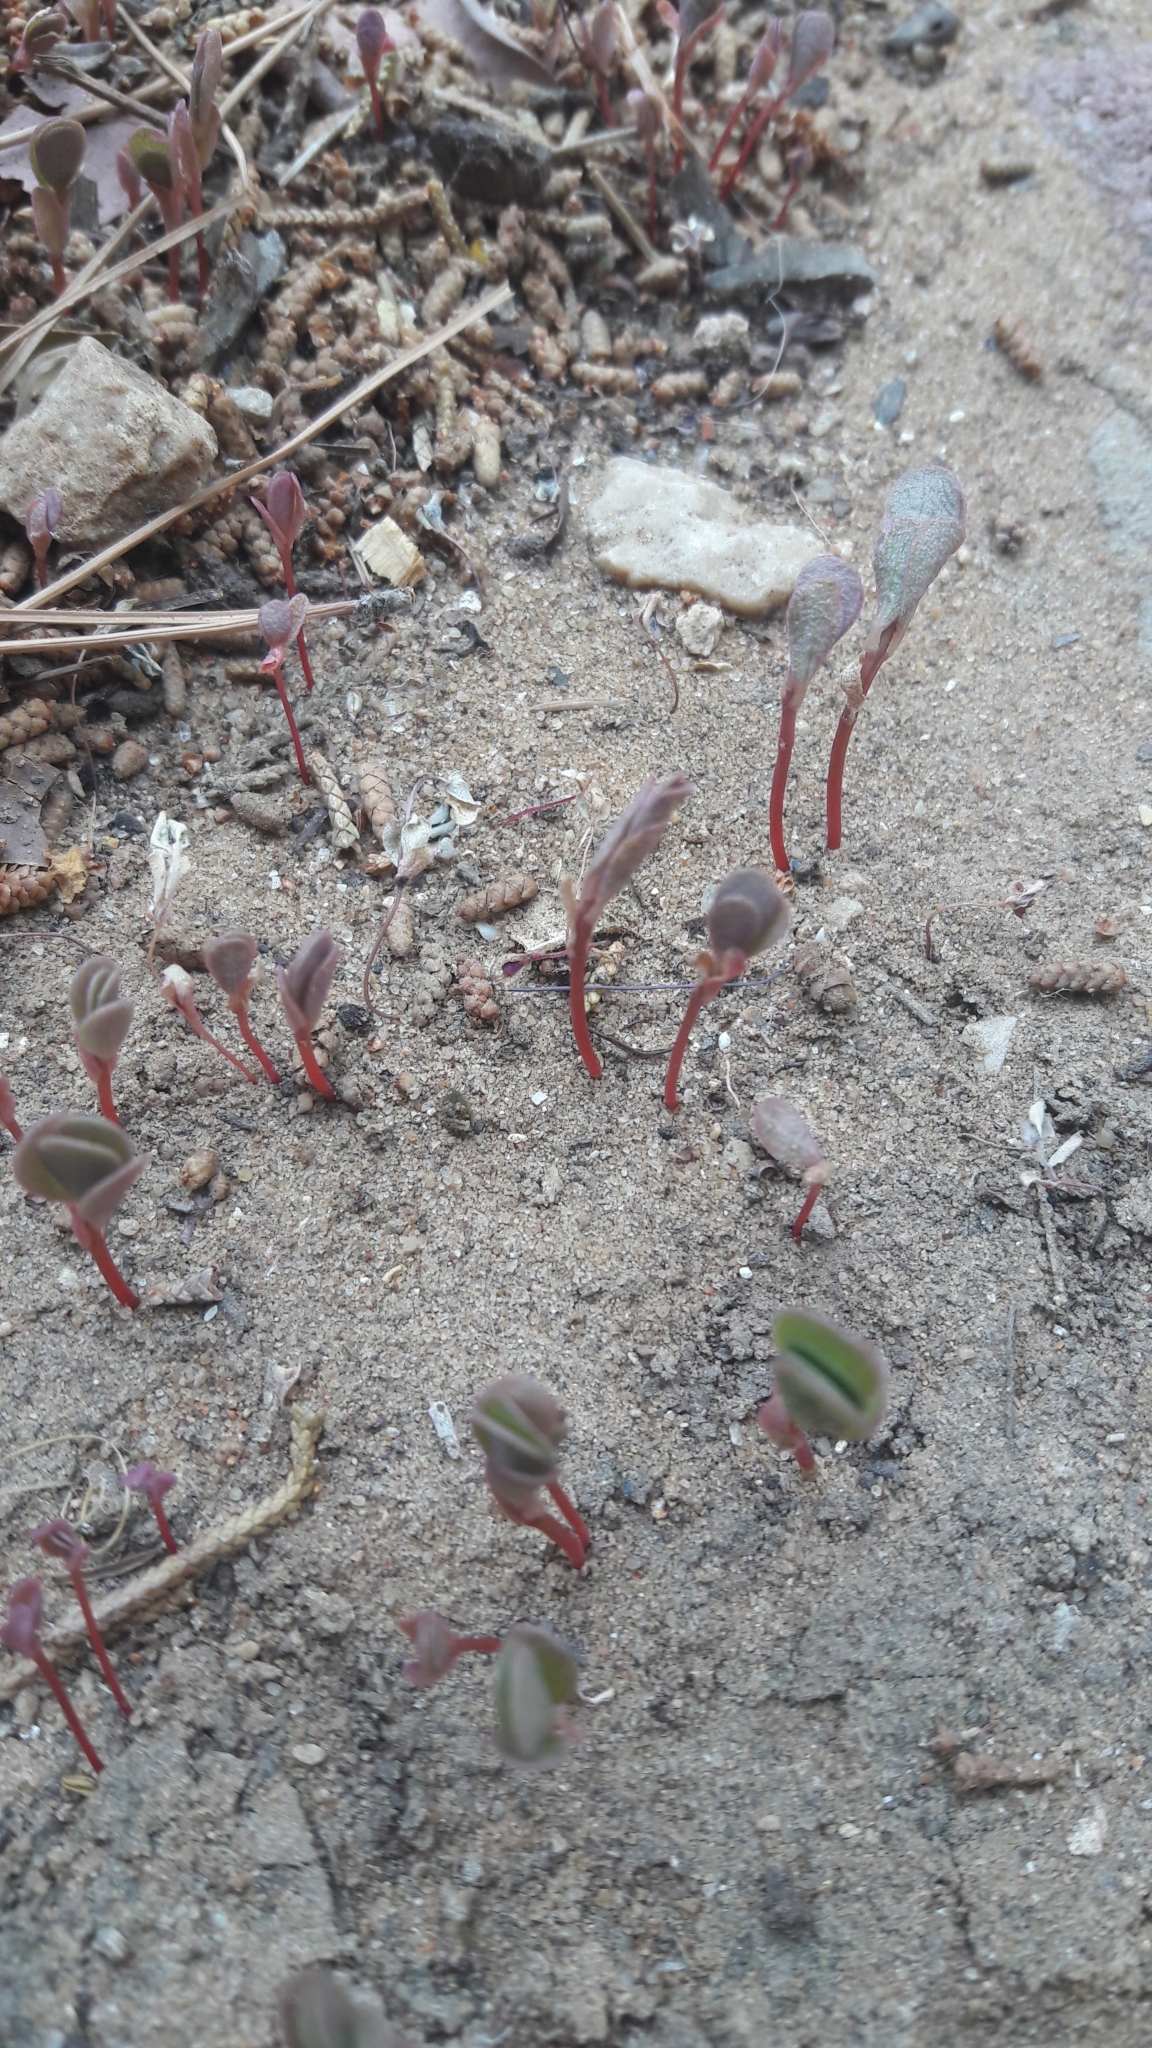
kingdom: Plantae
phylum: Tracheophyta
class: Magnoliopsida
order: Caryophyllales
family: Portulacaceae
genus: Portulaca
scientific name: Portulaca oleracea
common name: Common purslane
